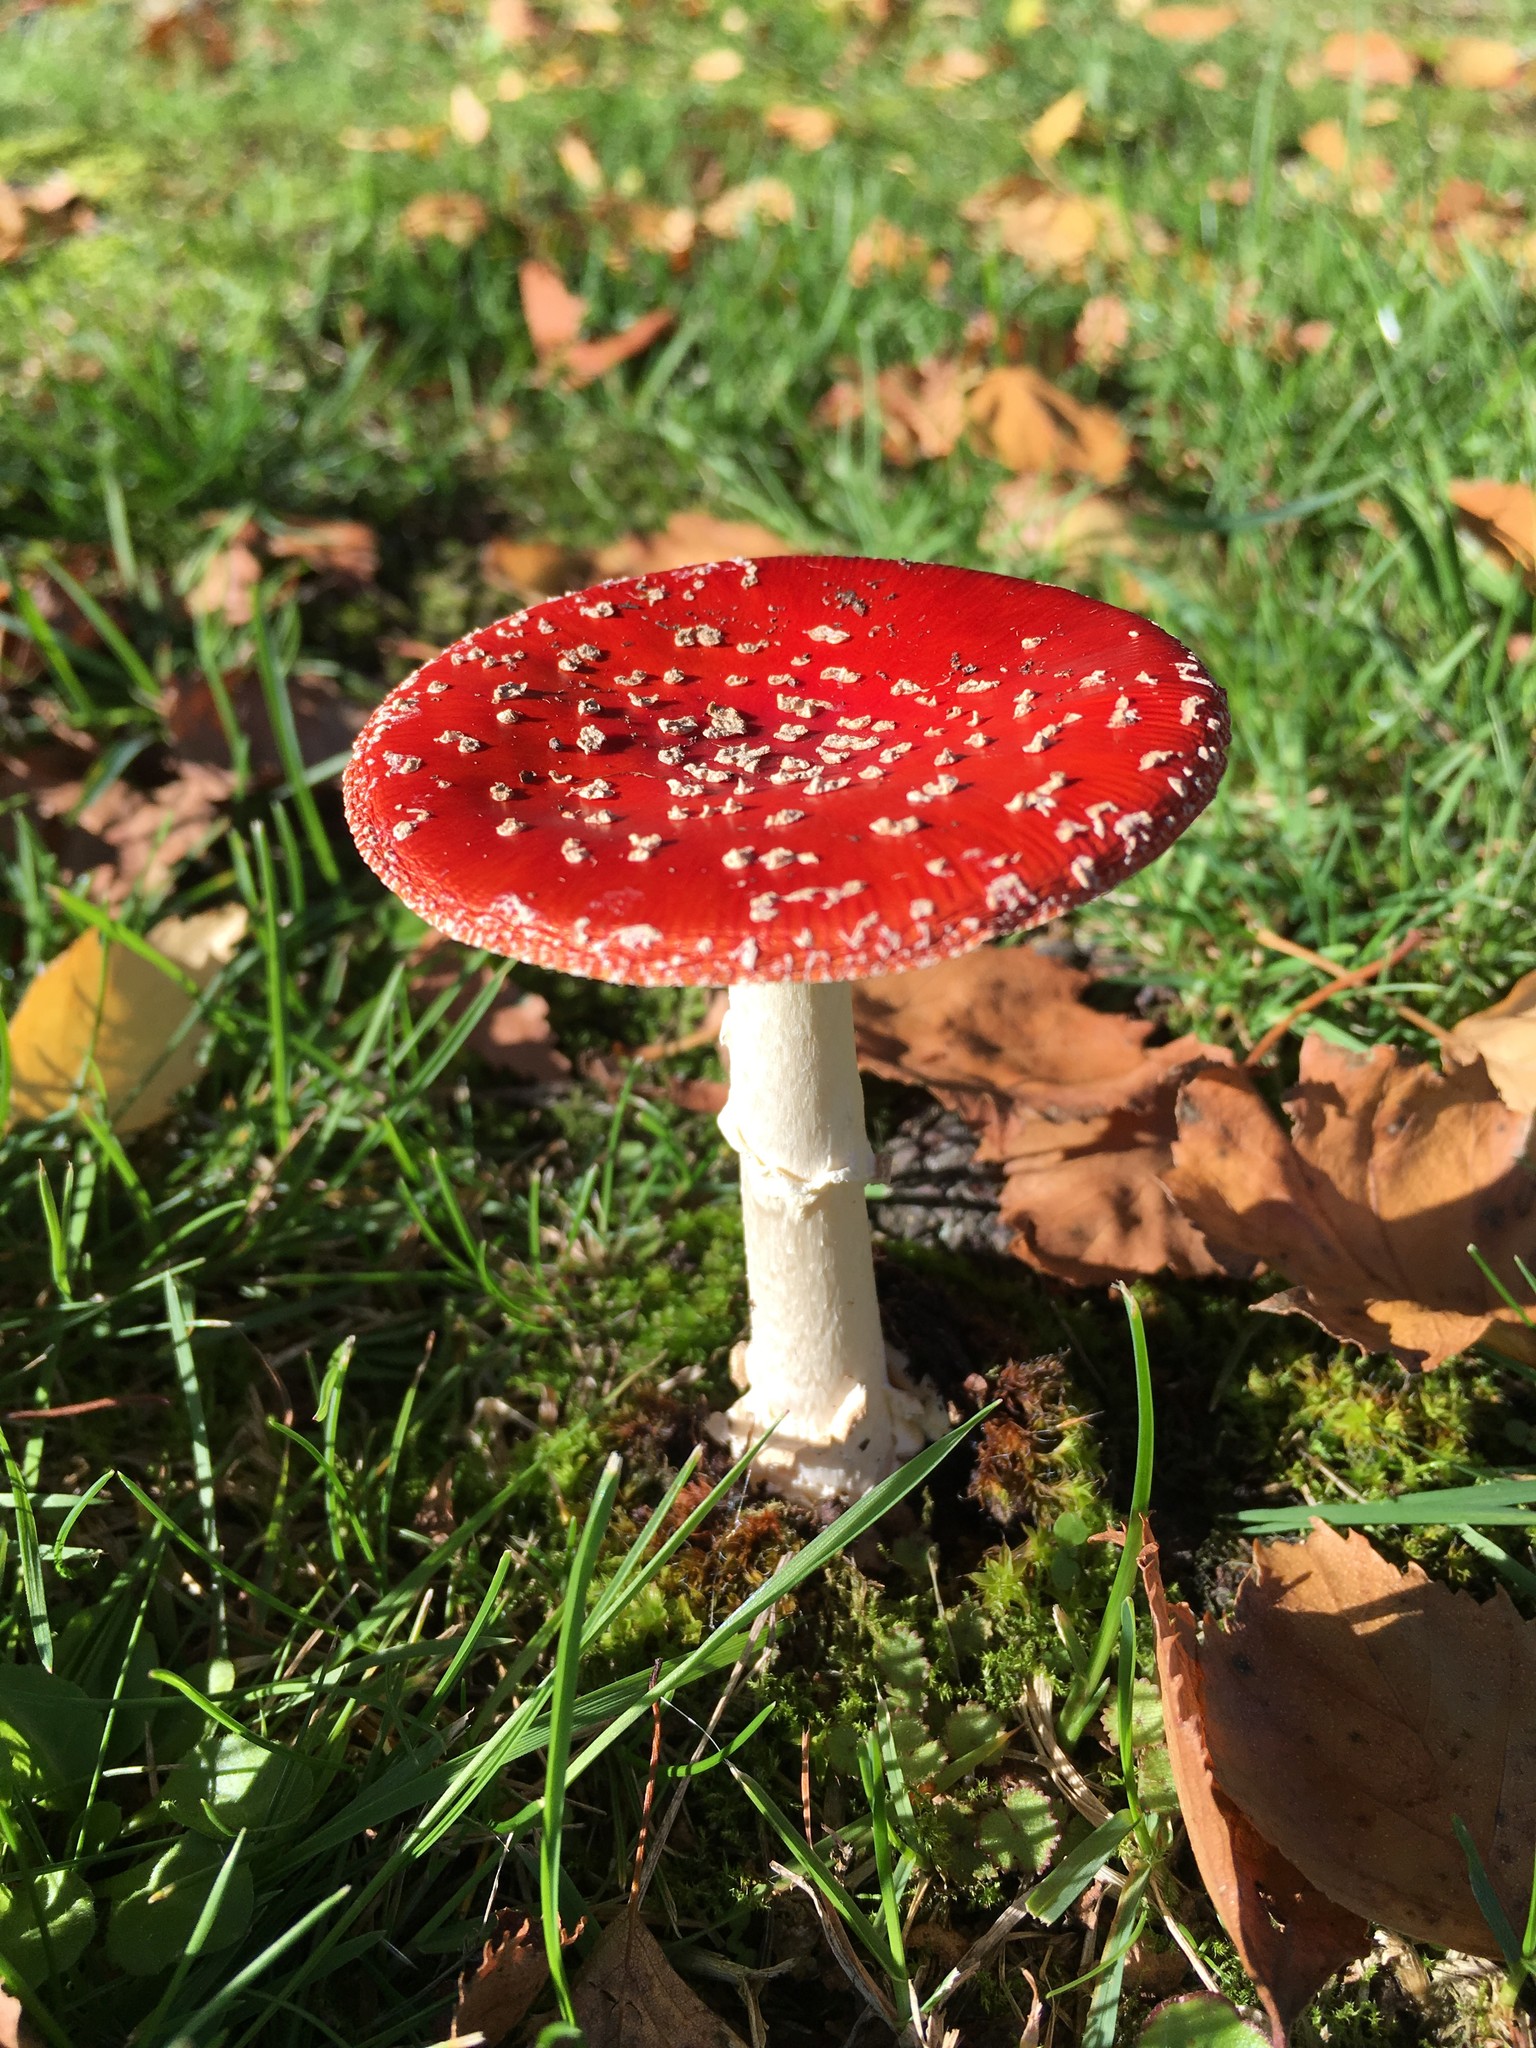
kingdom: Fungi
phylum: Basidiomycota
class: Agaricomycetes
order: Agaricales
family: Amanitaceae
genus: Amanita
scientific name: Amanita muscaria
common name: Fly agaric
